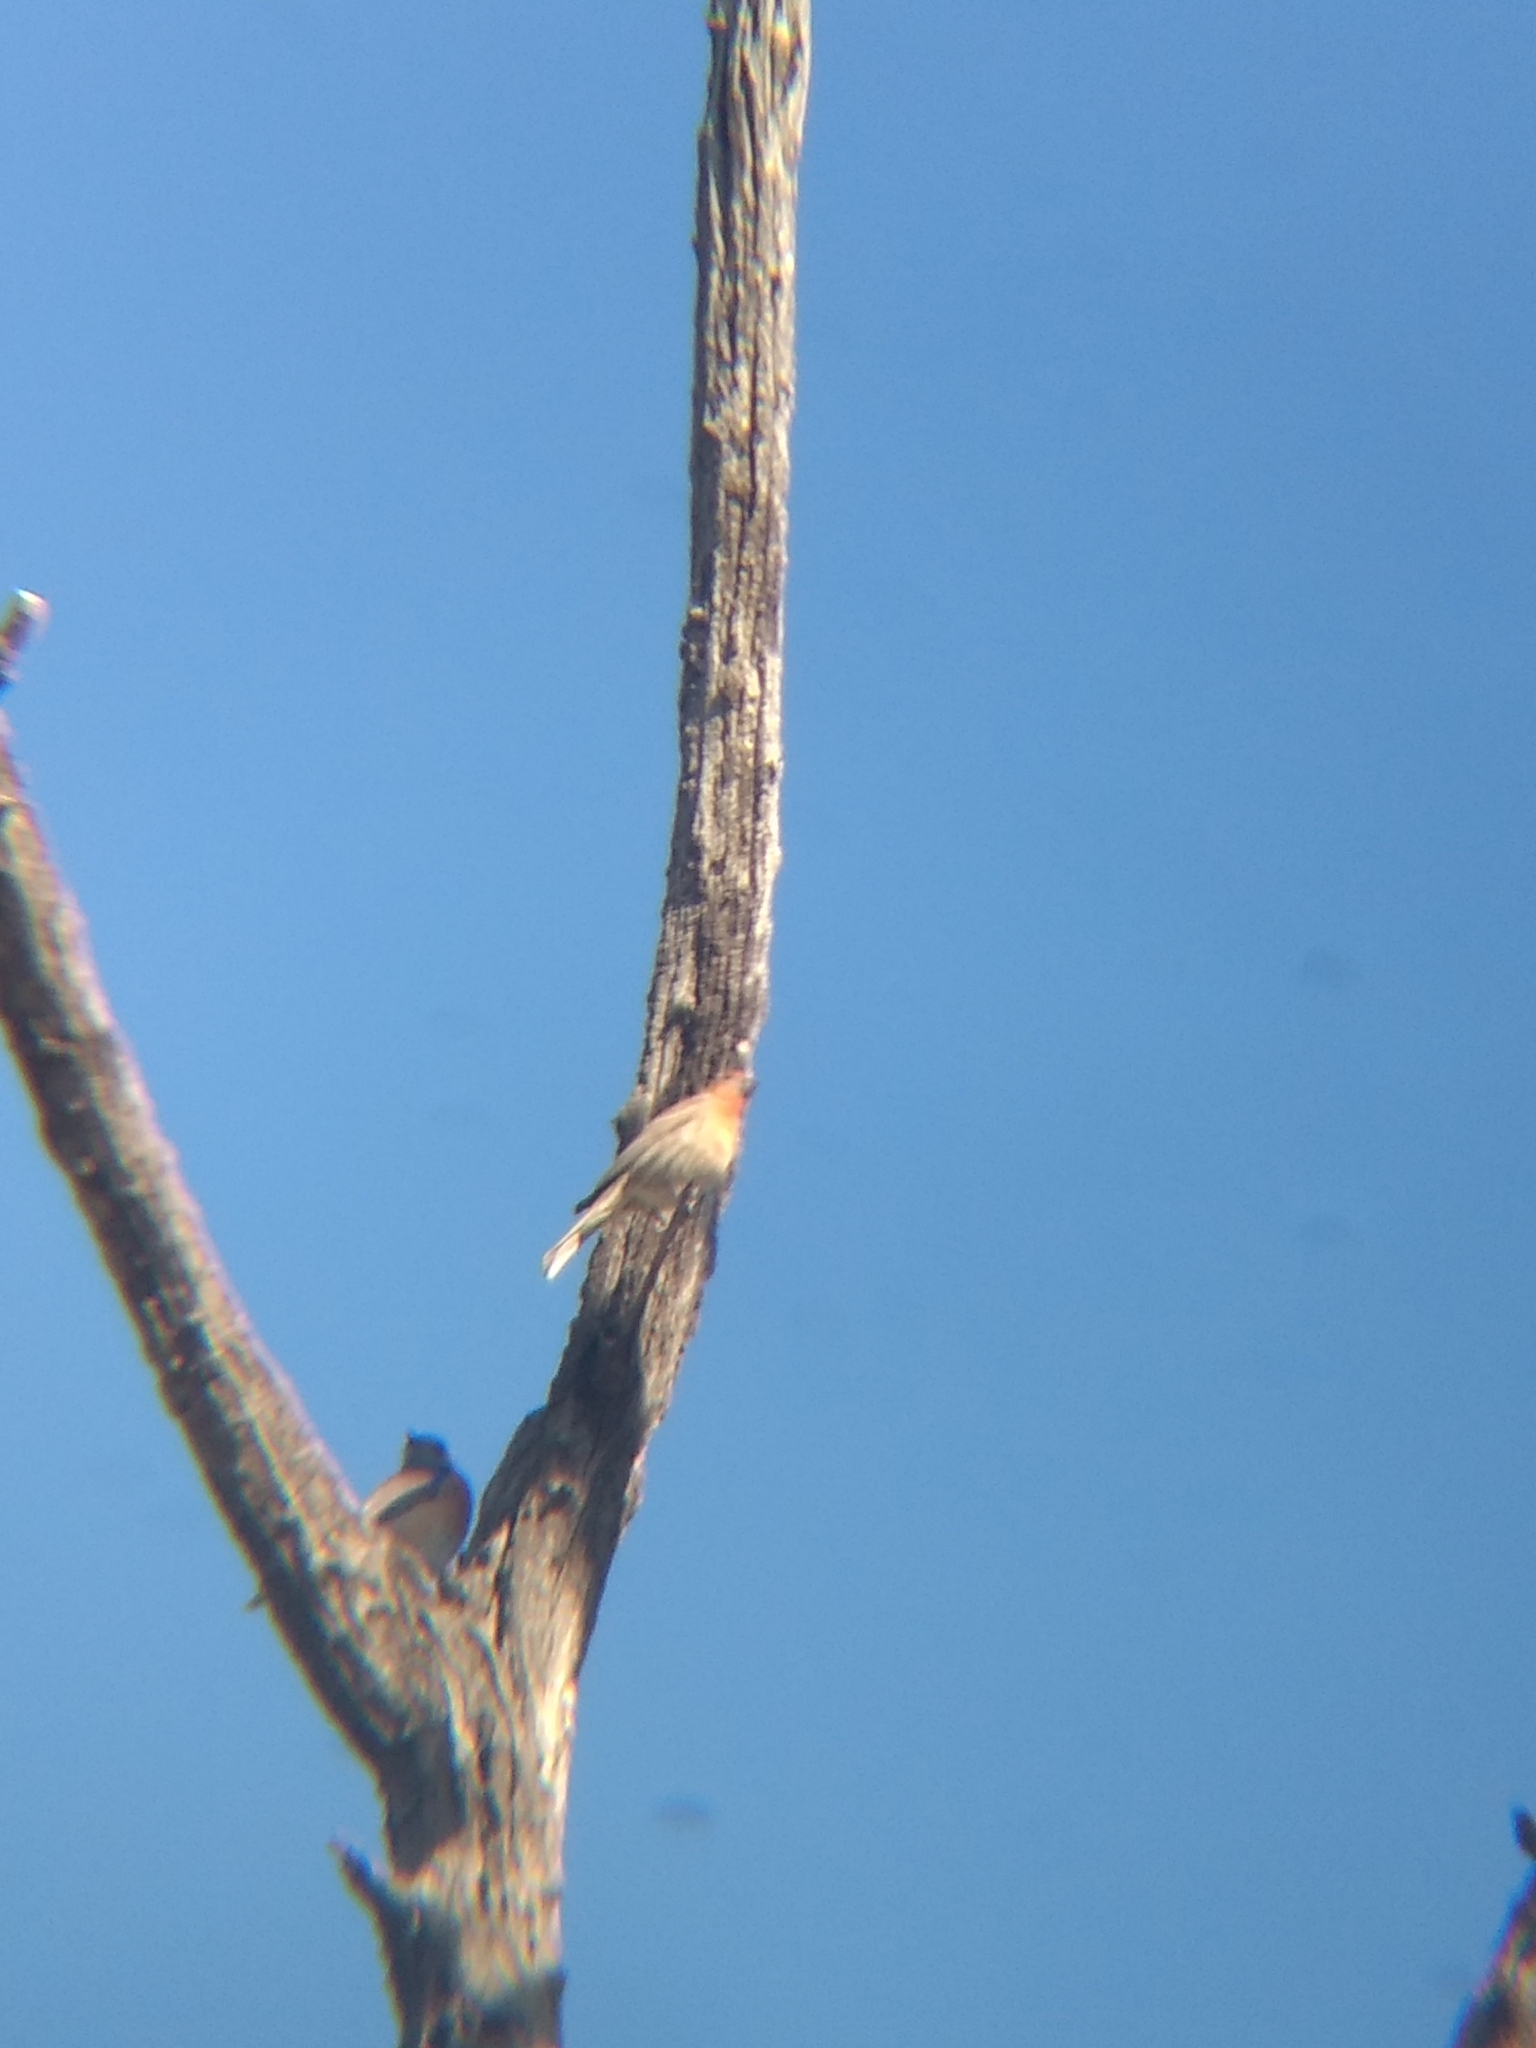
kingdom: Animalia
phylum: Chordata
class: Aves
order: Passeriformes
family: Fringillidae
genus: Haemorhous
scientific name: Haemorhous mexicanus
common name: House finch
